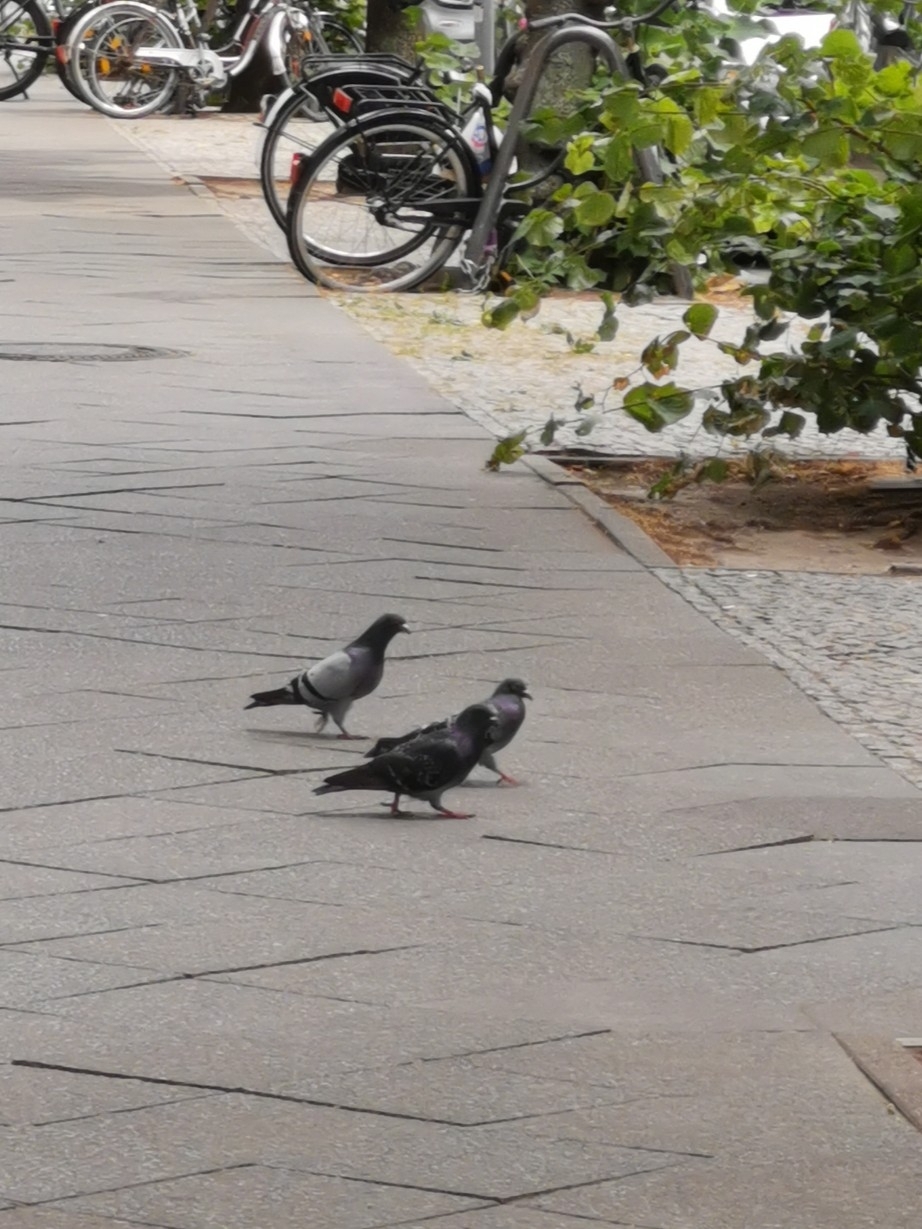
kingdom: Animalia
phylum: Chordata
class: Aves
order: Columbiformes
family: Columbidae
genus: Columba
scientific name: Columba livia
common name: Rock pigeon
